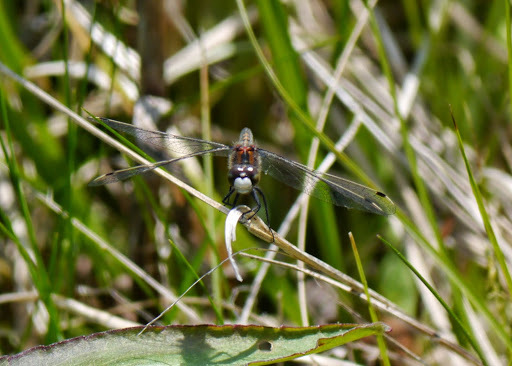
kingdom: Animalia
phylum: Arthropoda
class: Insecta
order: Odonata
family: Libellulidae
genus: Leucorrhinia
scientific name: Leucorrhinia hudsonica
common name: Hudsonian whiteface
